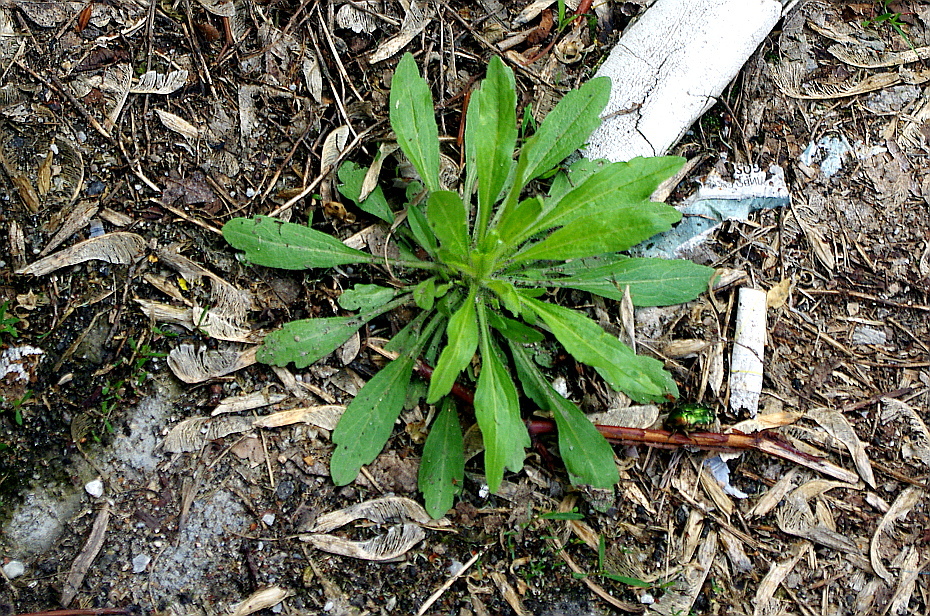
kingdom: Plantae
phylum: Tracheophyta
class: Magnoliopsida
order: Asterales
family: Asteraceae
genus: Erigeron
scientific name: Erigeron canadensis
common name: Canadian fleabane
